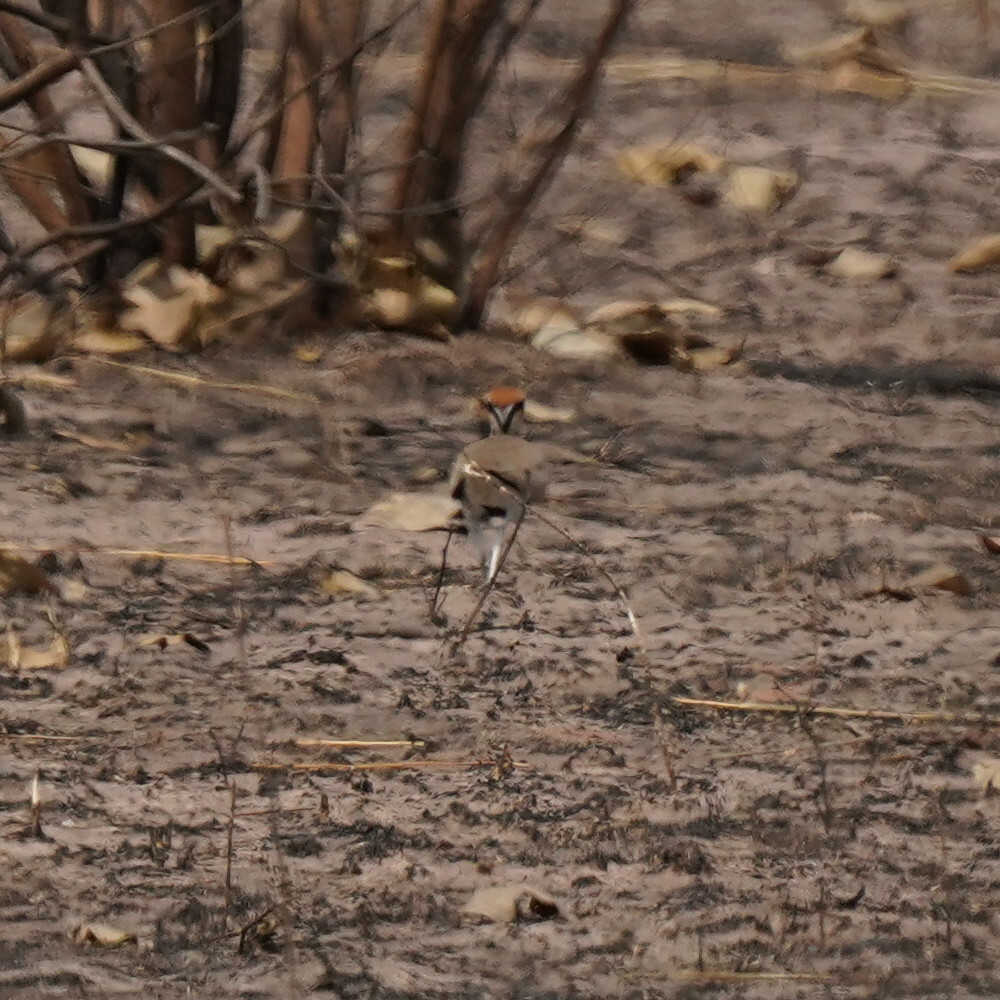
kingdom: Animalia
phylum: Chordata
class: Aves
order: Charadriiformes
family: Glareolidae
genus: Cursorius
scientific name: Cursorius temminckii
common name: Temminck's courser
